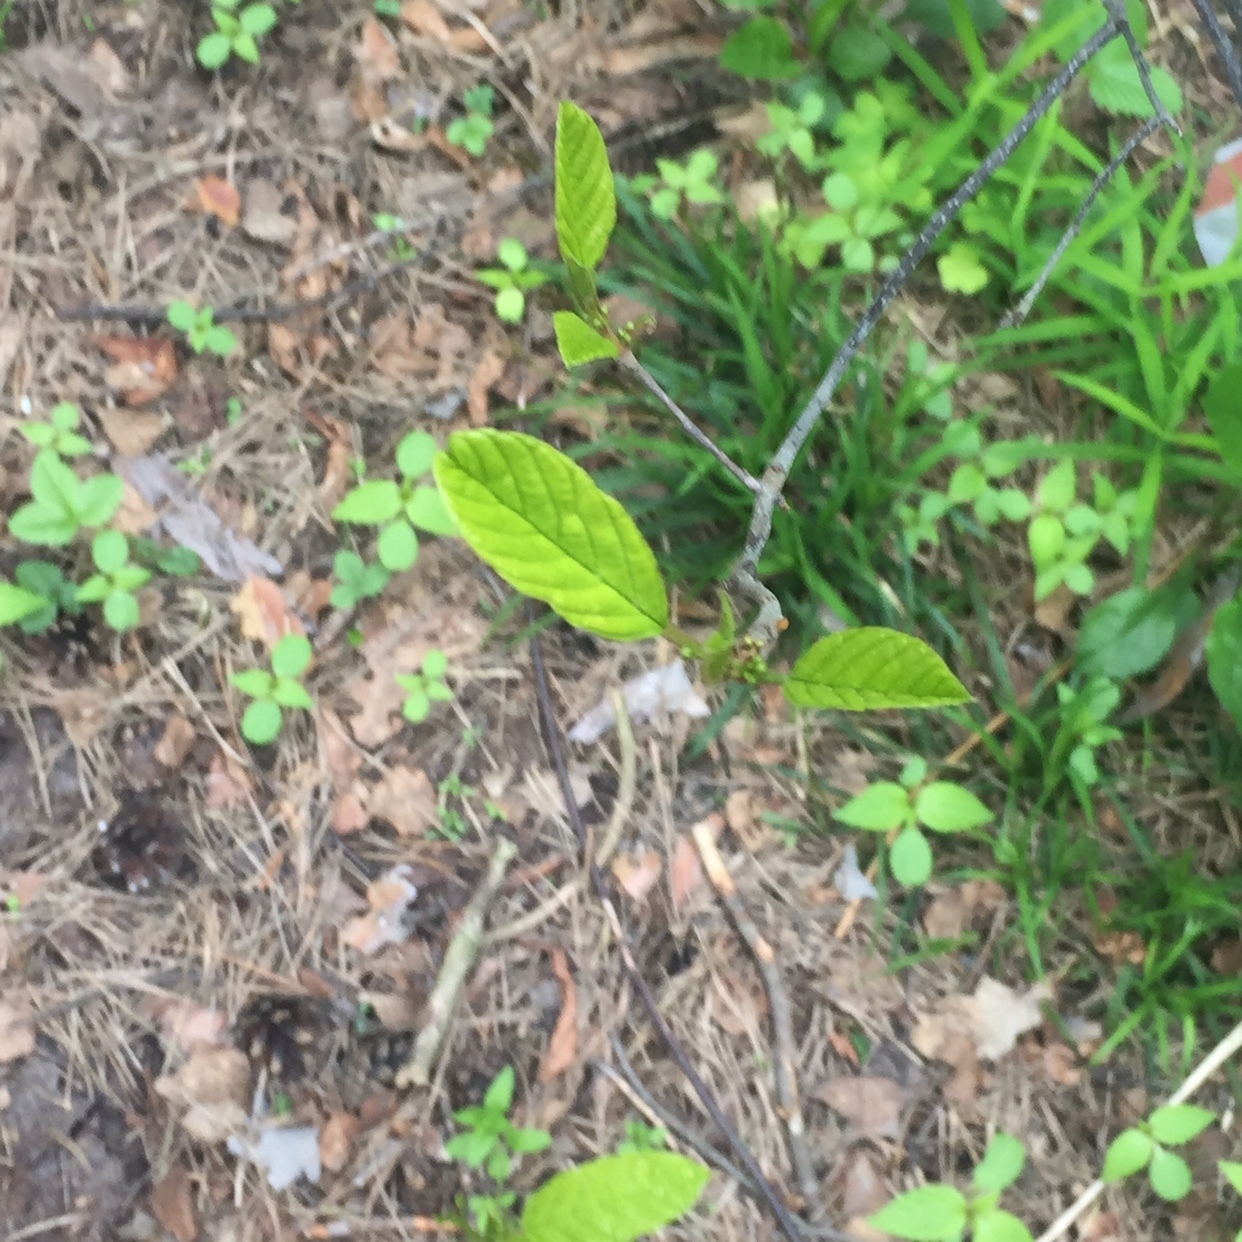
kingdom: Plantae
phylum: Tracheophyta
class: Magnoliopsida
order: Rosales
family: Rhamnaceae
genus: Frangula
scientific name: Frangula alnus
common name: Alder buckthorn
